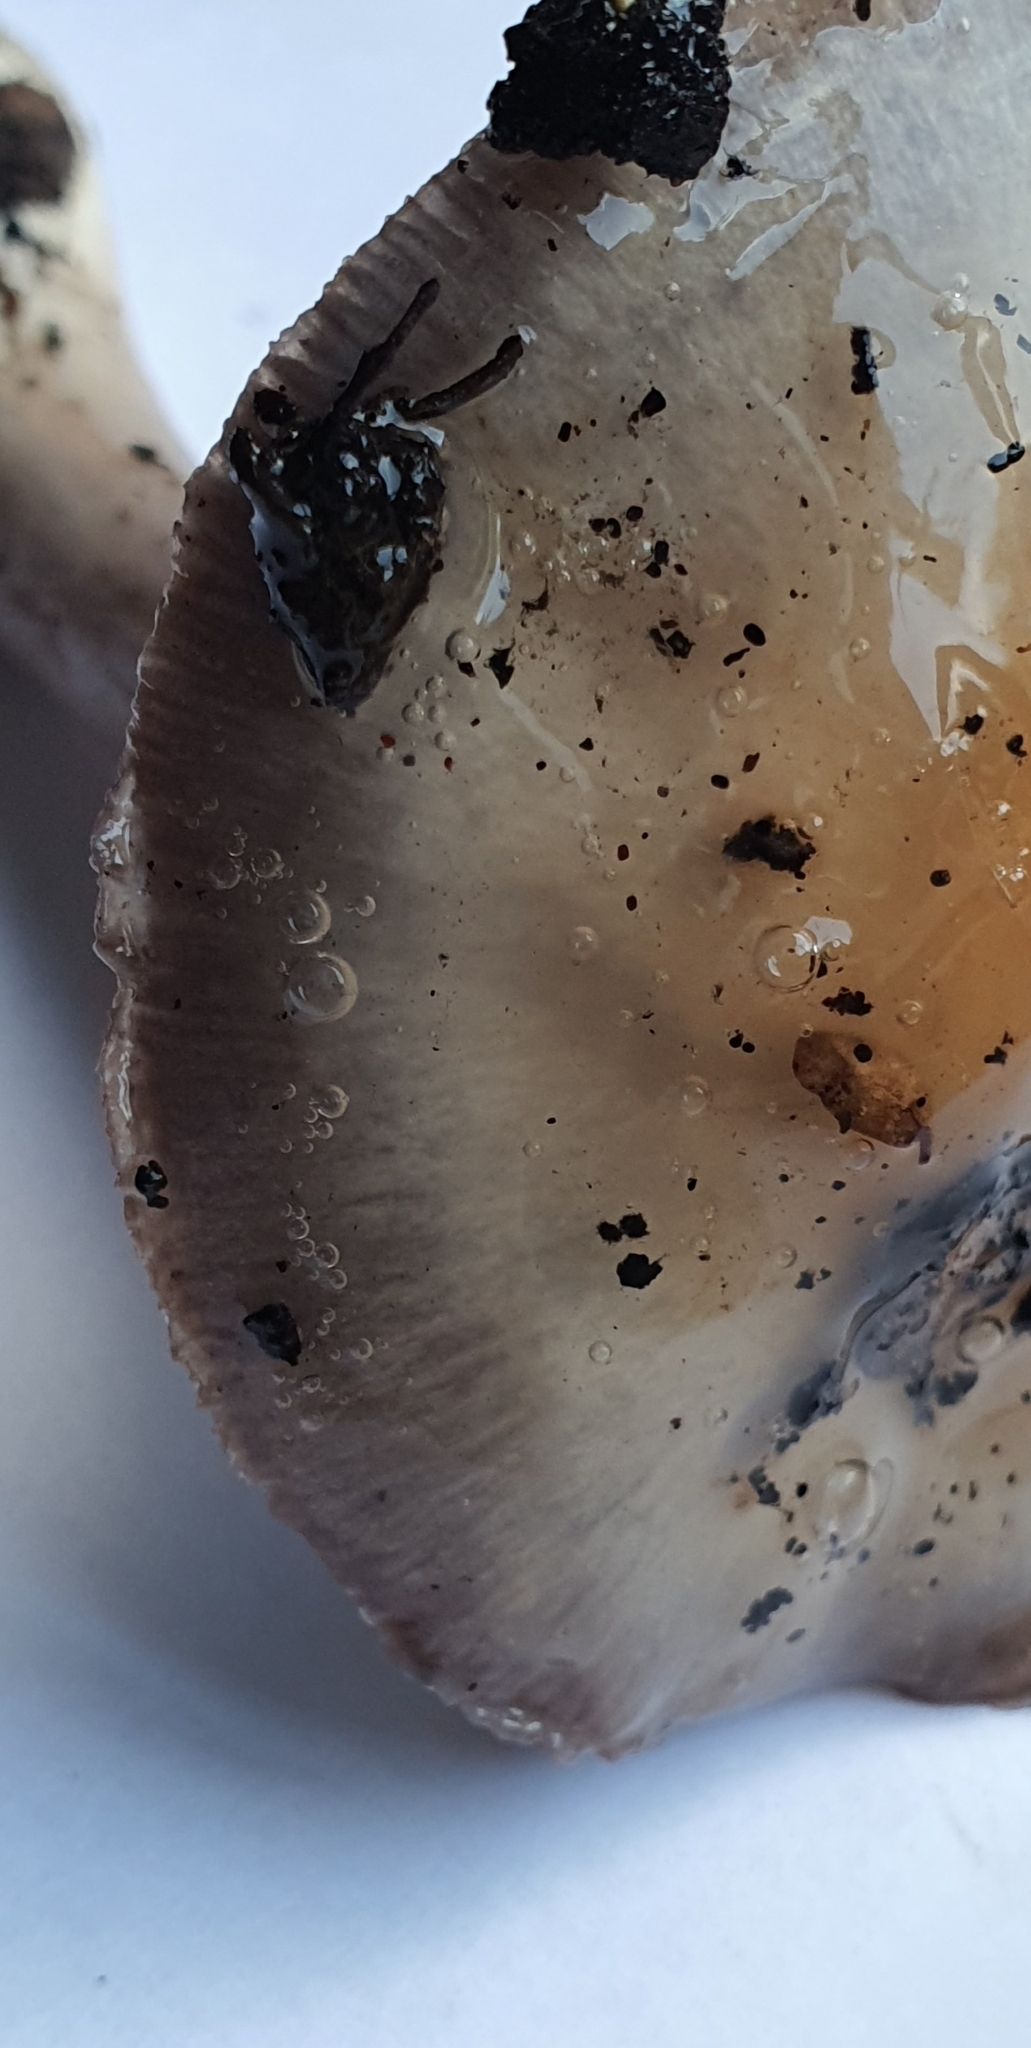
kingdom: Fungi
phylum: Basidiomycota
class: Agaricomycetes
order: Agaricales
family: Cortinariaceae
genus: Cortinarius
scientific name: Cortinarius taylorianus
